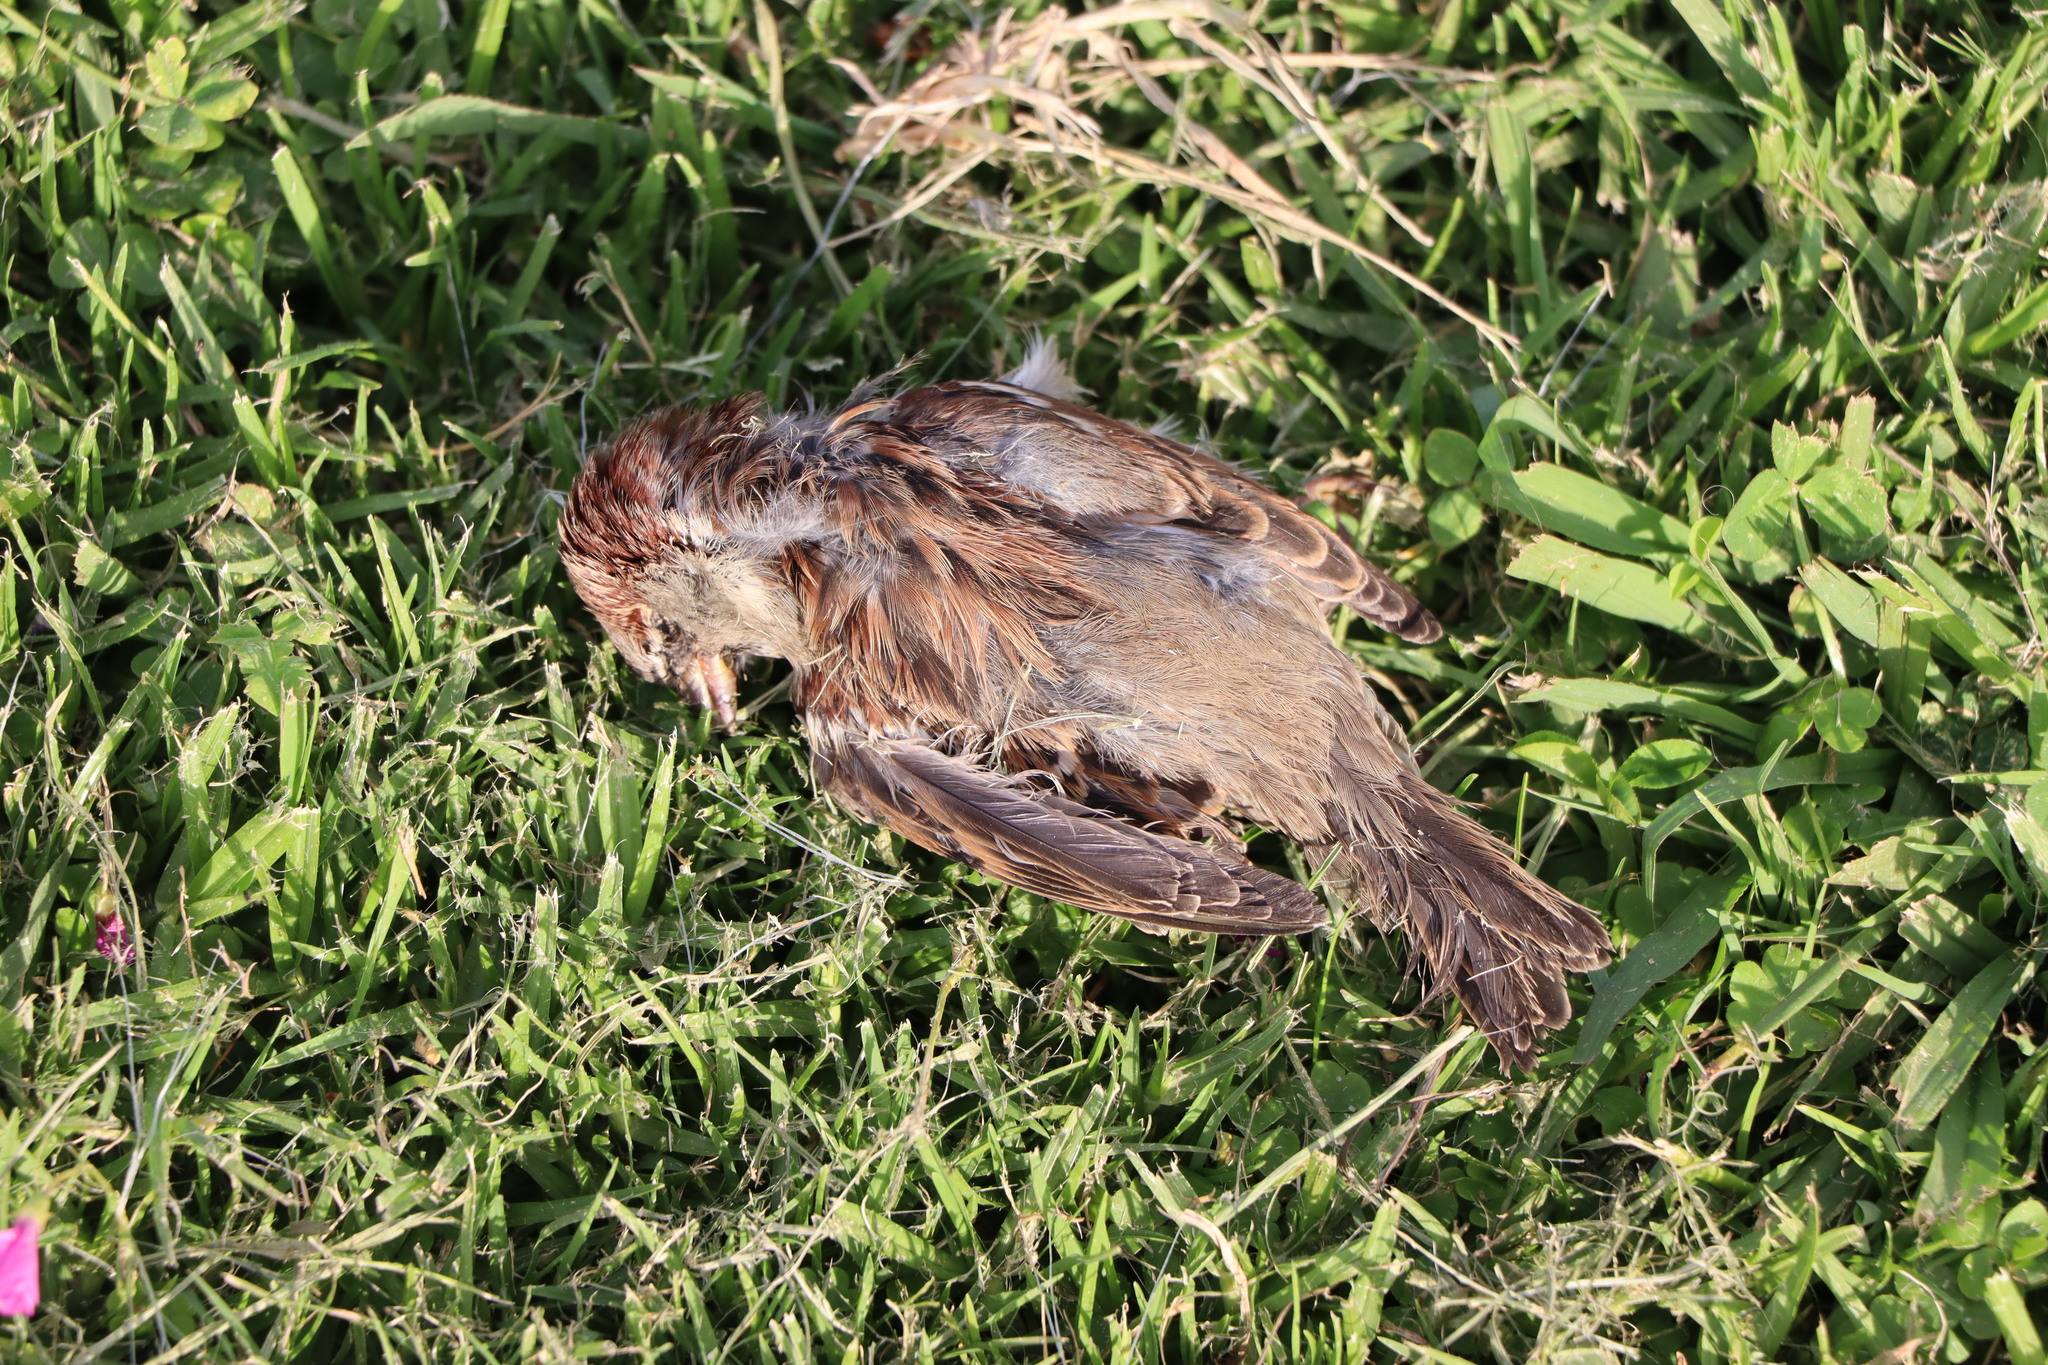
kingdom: Animalia
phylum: Chordata
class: Aves
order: Passeriformes
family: Passeridae
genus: Passer
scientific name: Passer domesticus
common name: House sparrow
